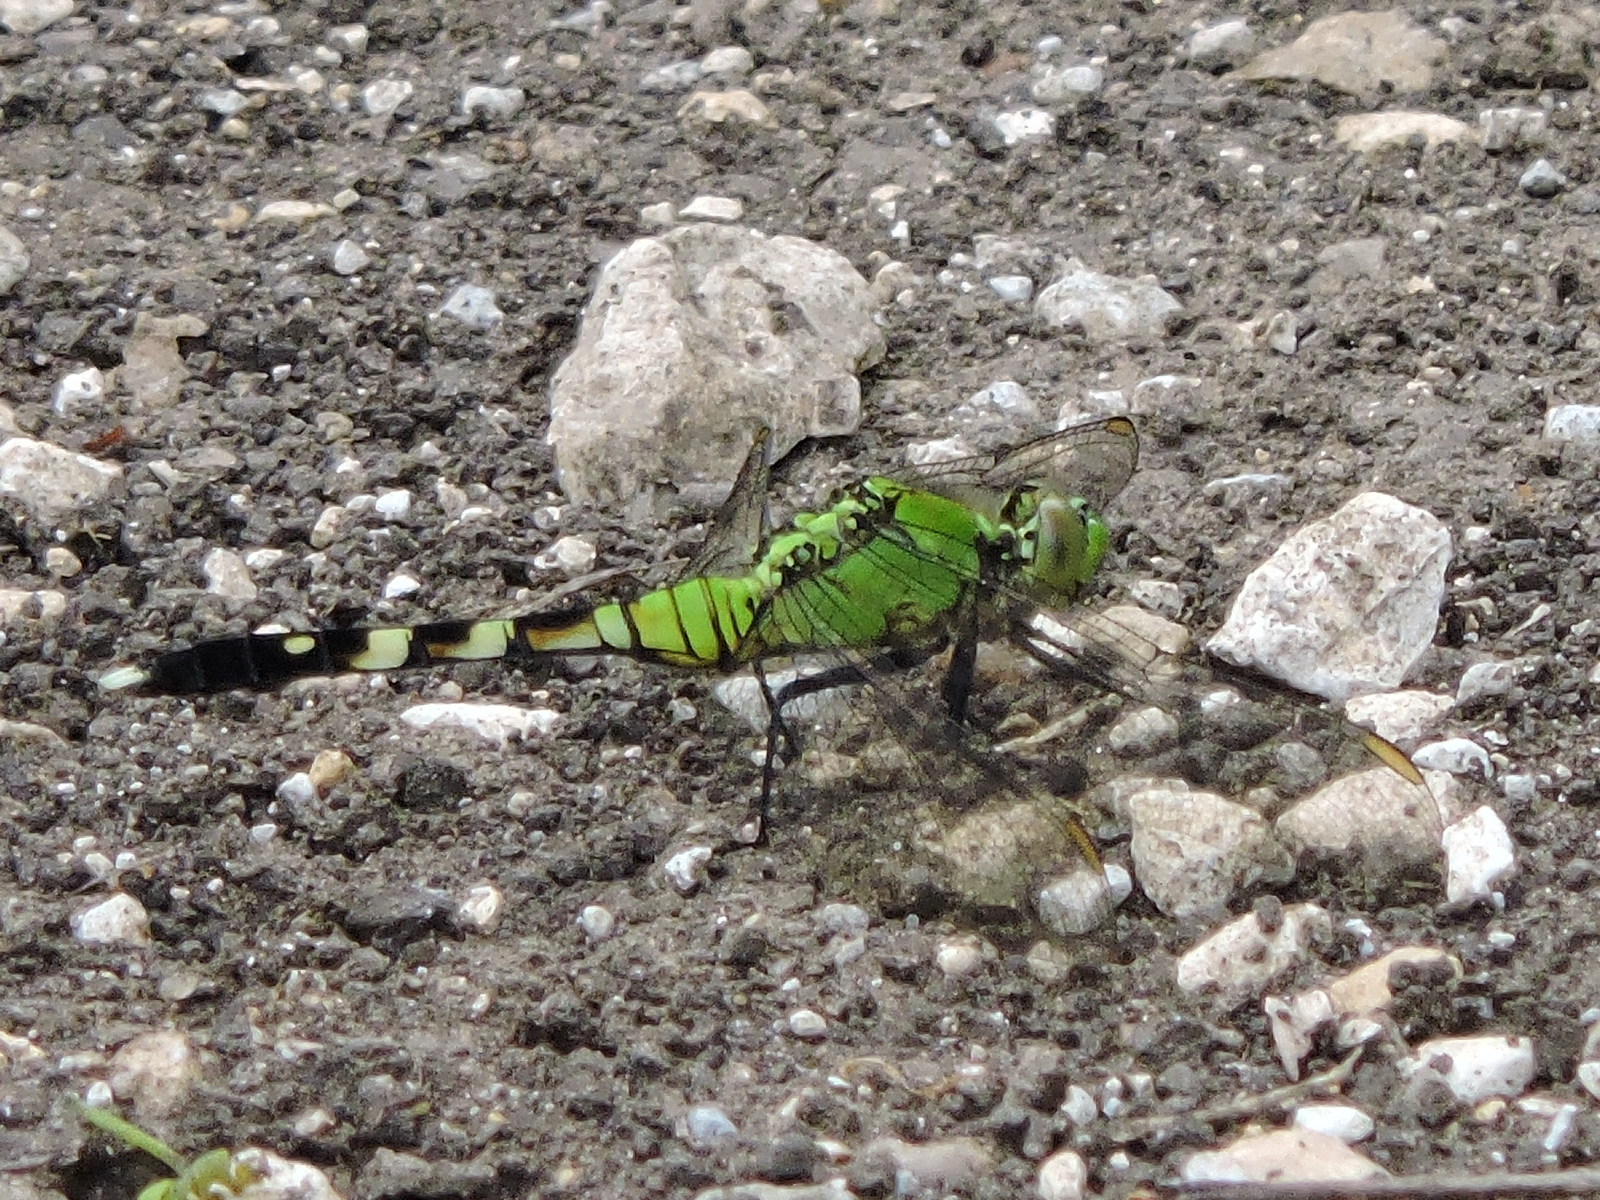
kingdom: Animalia
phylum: Arthropoda
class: Insecta
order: Odonata
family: Libellulidae
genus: Erythemis
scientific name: Erythemis simplicicollis
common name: Eastern pondhawk
